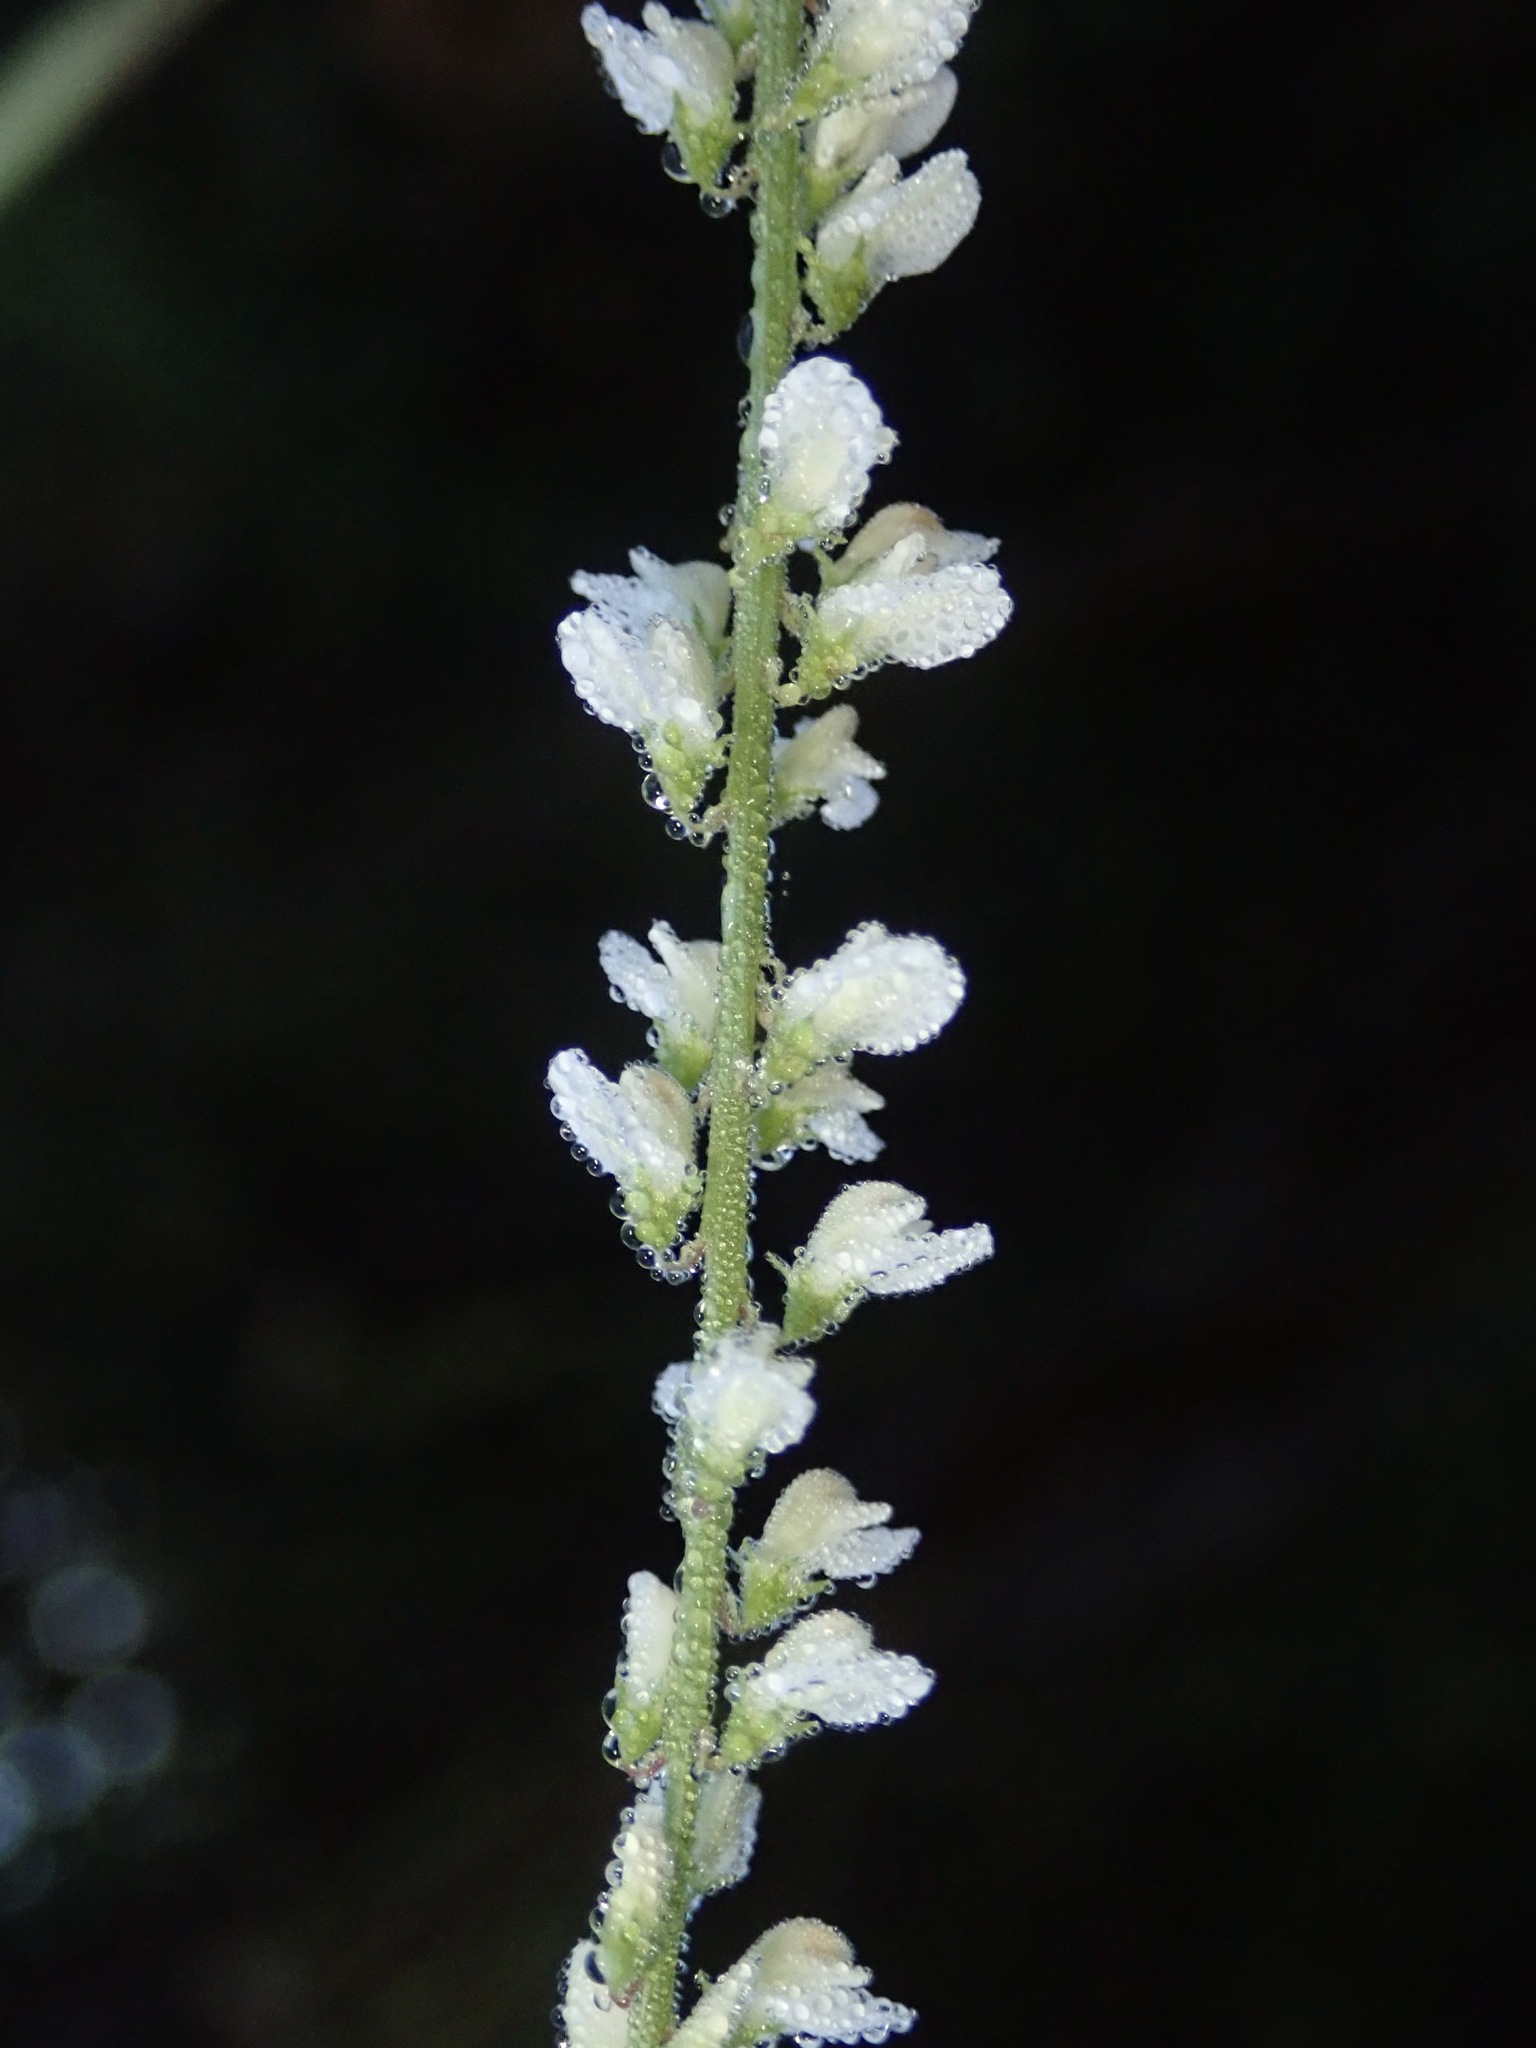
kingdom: Plantae
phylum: Tracheophyta
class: Magnoliopsida
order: Fabales
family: Fabaceae
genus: Melilotus
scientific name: Melilotus albus
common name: White melilot
